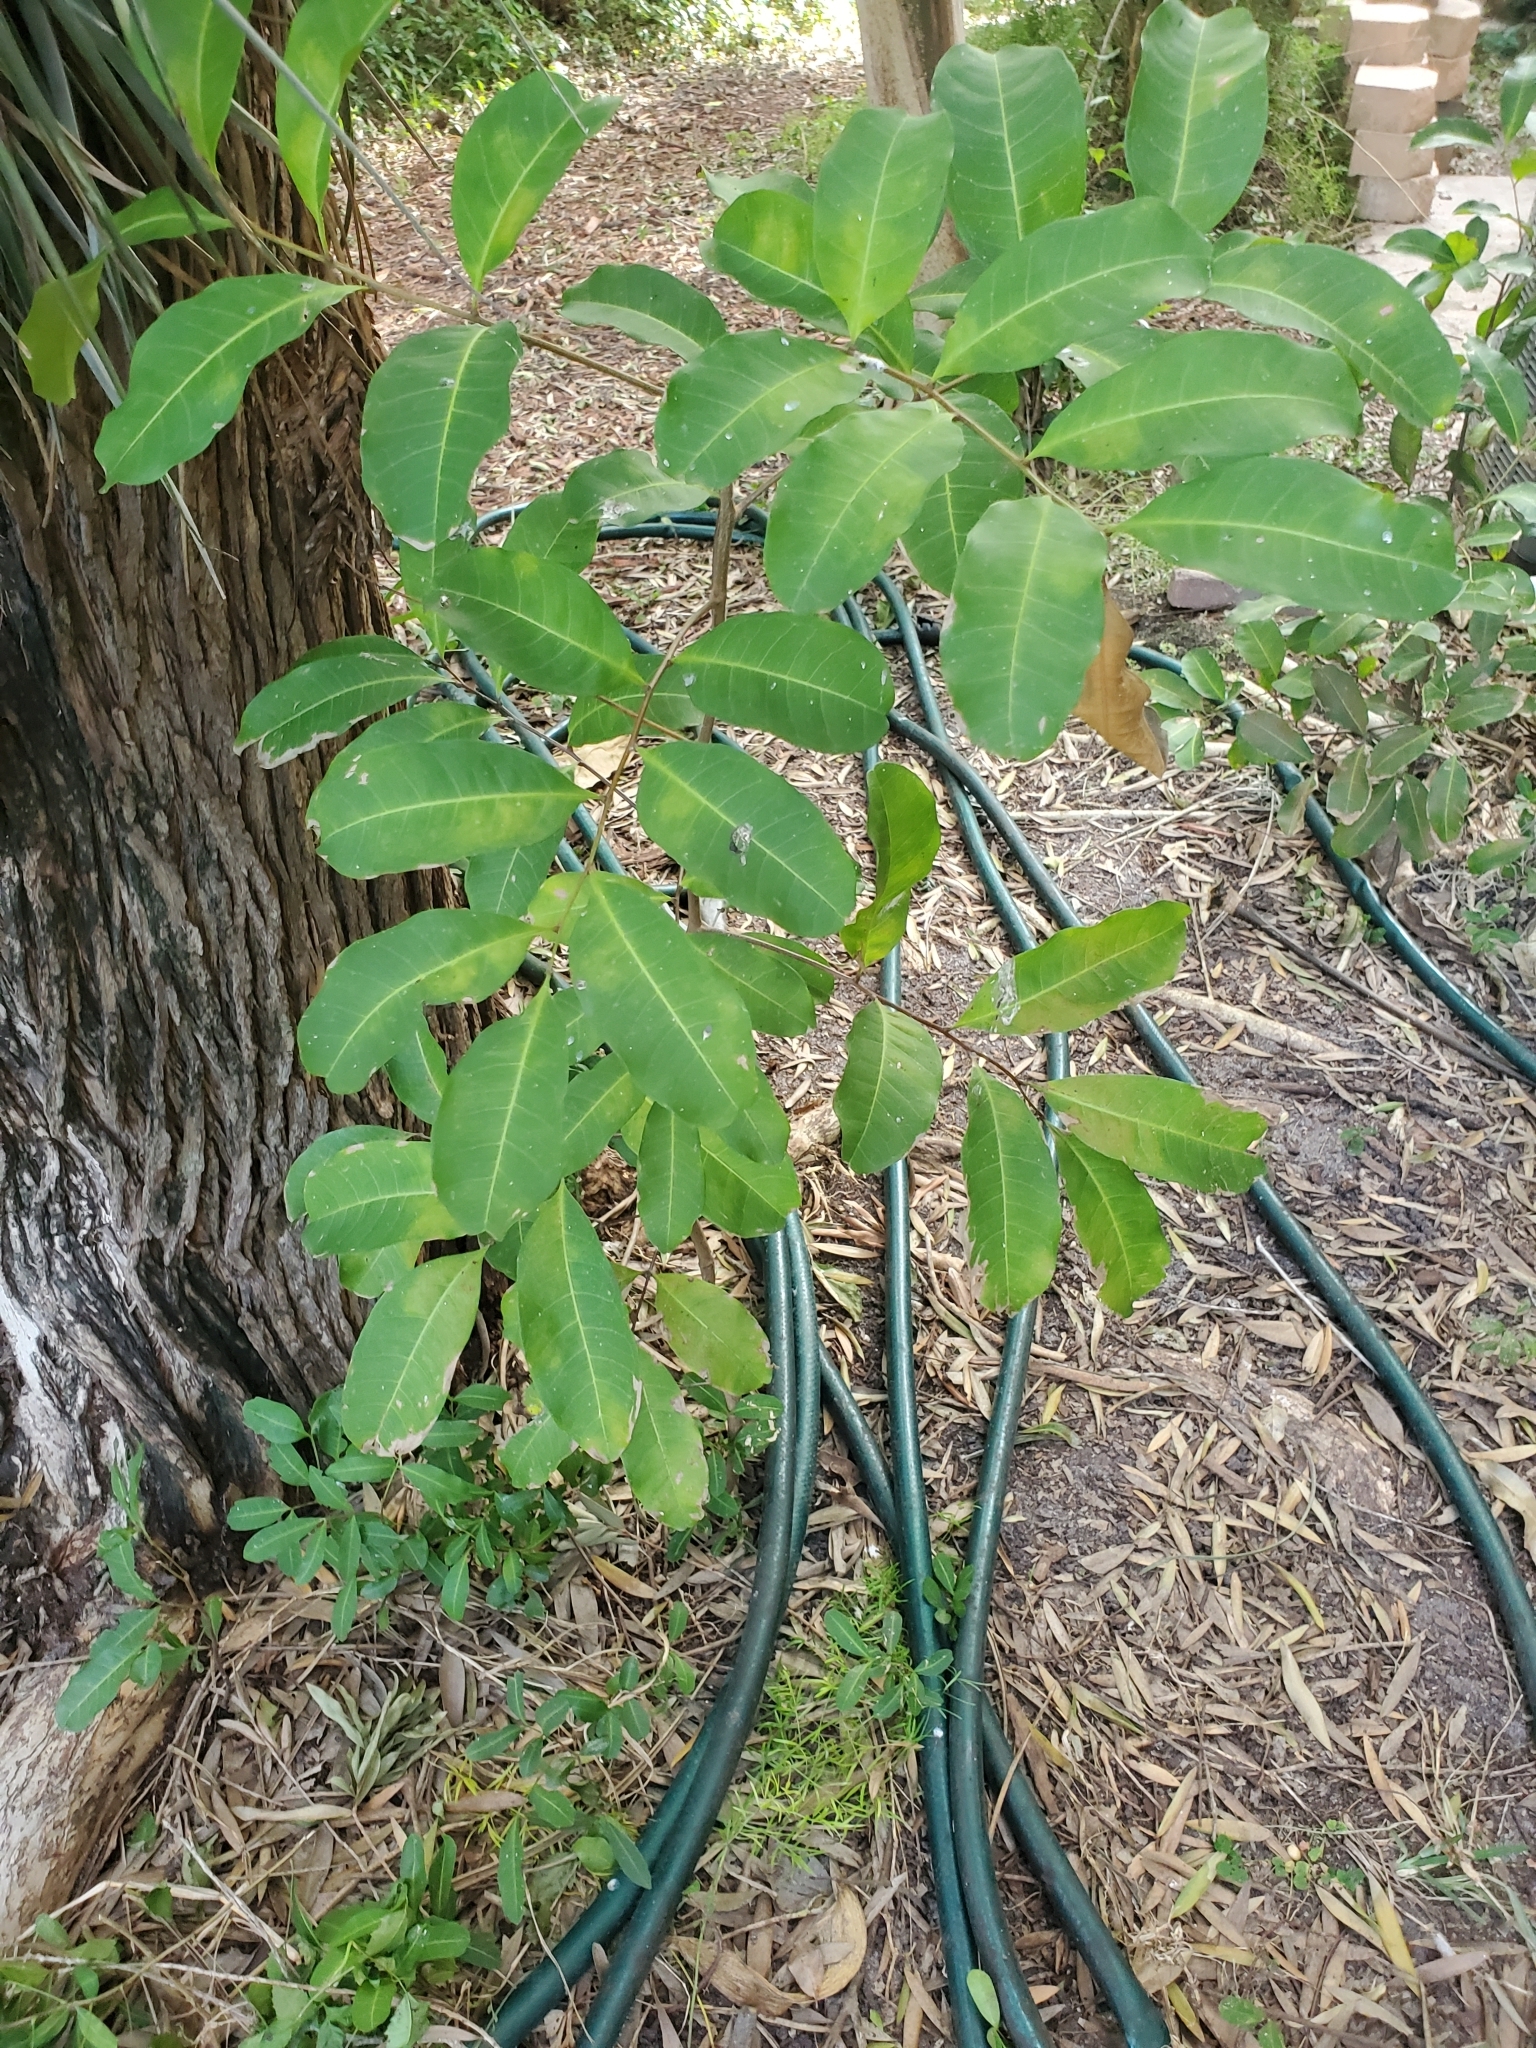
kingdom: Plantae
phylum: Tracheophyta
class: Magnoliopsida
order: Sapindales
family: Sapindaceae
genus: Cupaniopsis
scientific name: Cupaniopsis anacardioides
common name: Carrotwood
